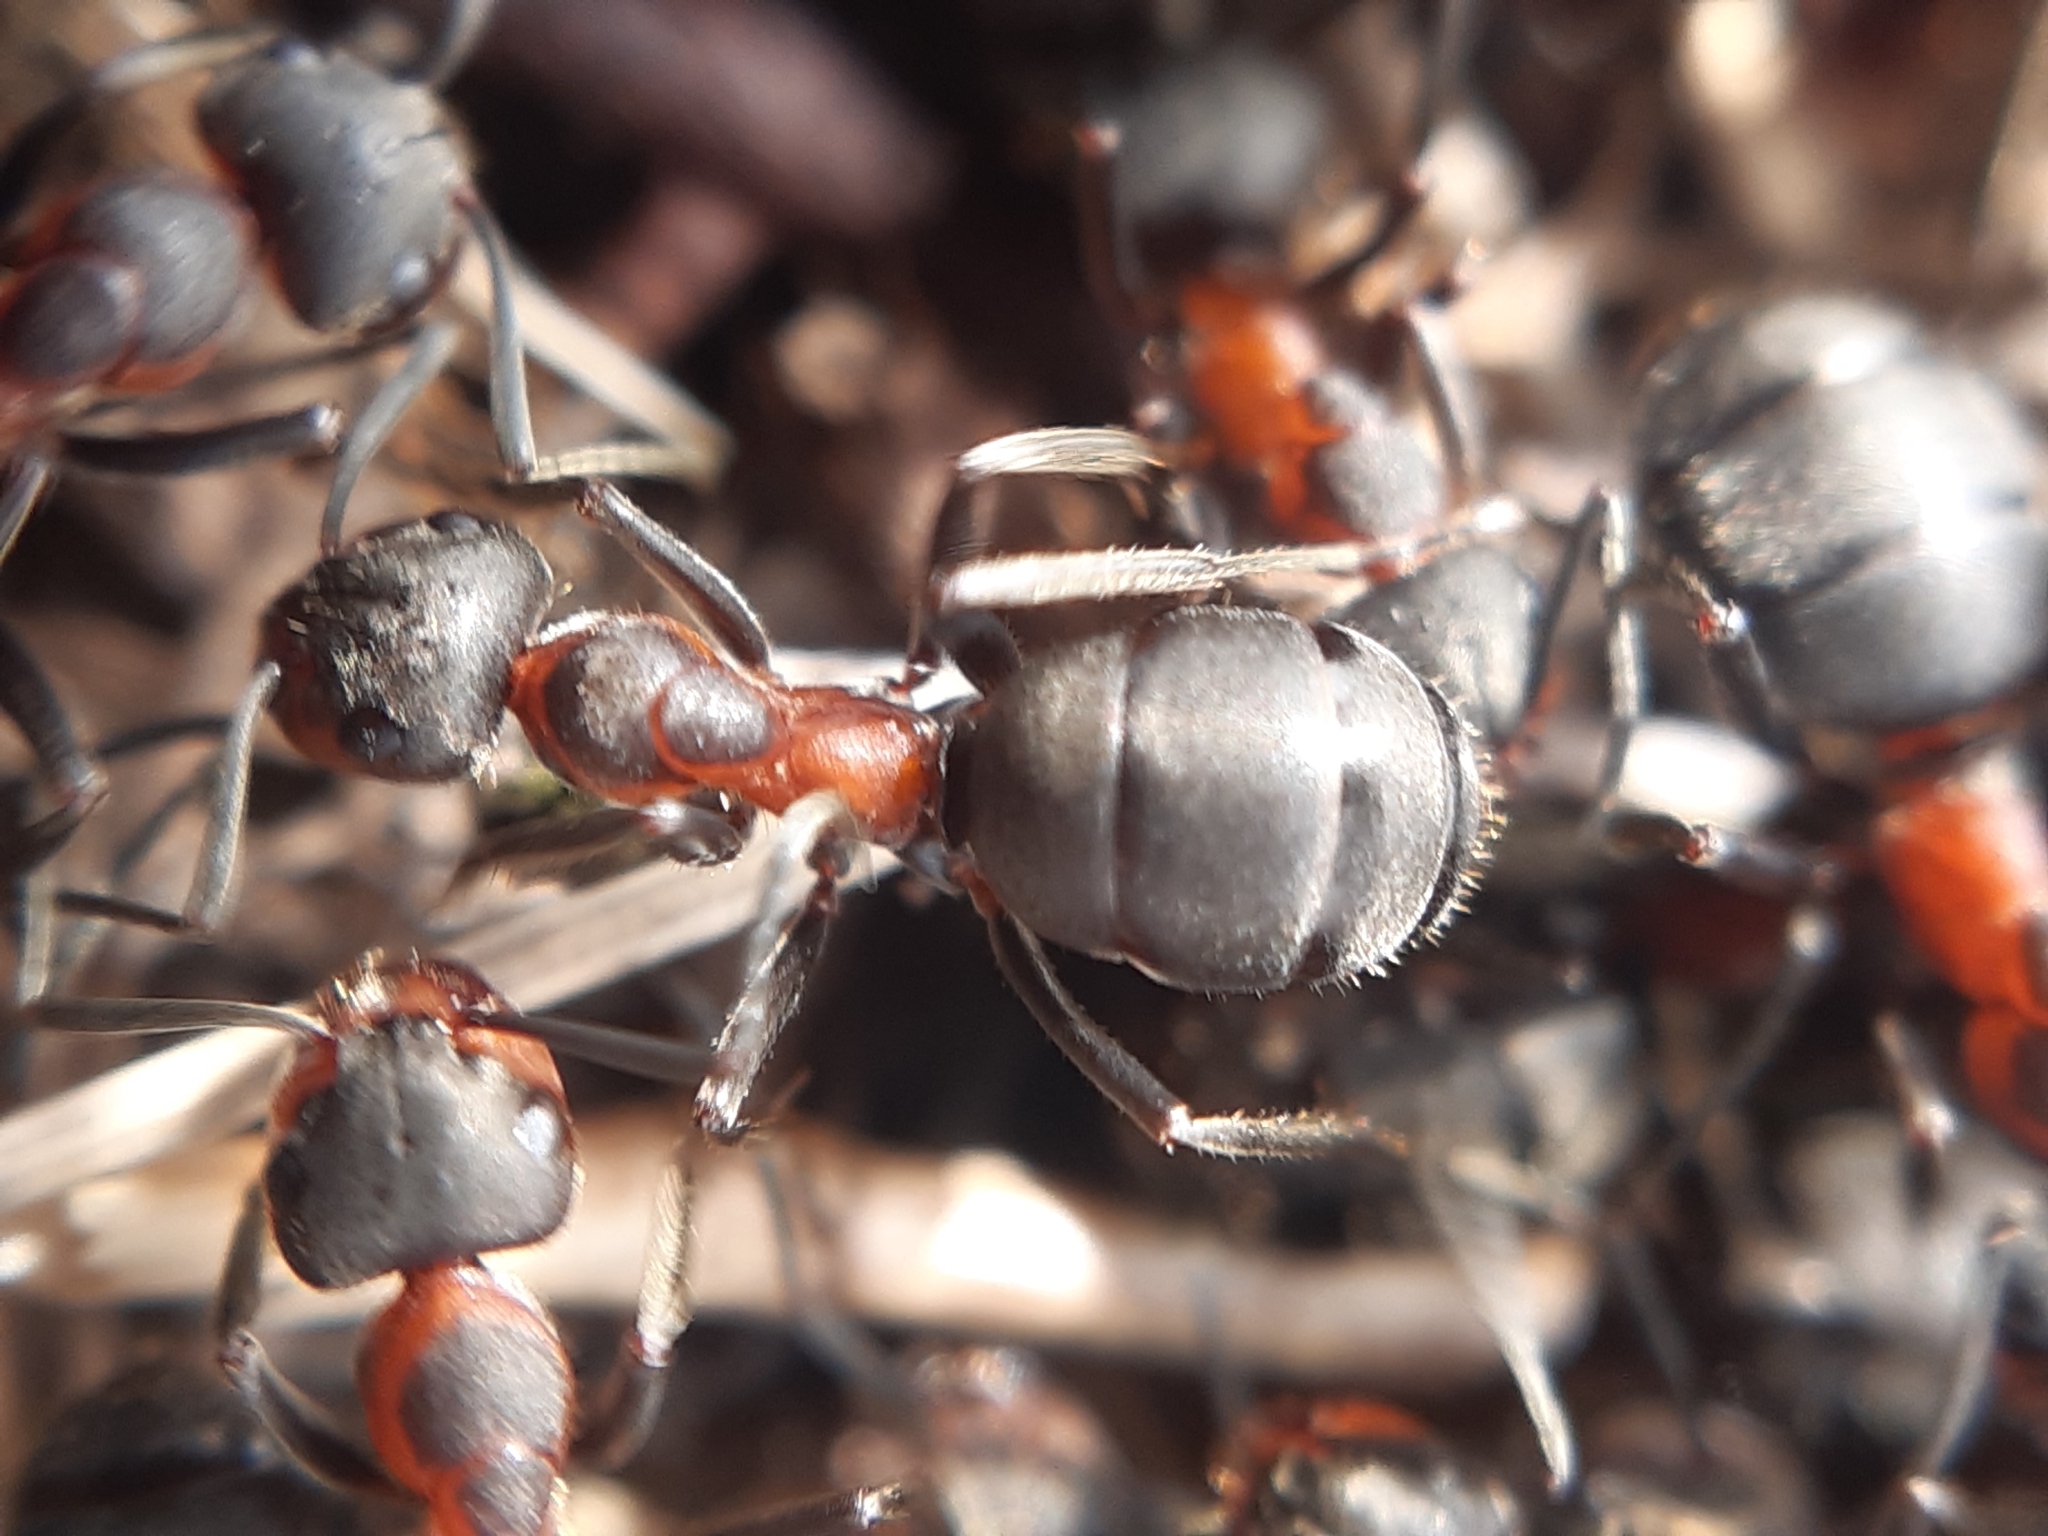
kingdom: Animalia
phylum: Arthropoda
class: Insecta
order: Hymenoptera
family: Formicidae
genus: Formica
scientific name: Formica pratensis
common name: European red wood ant
